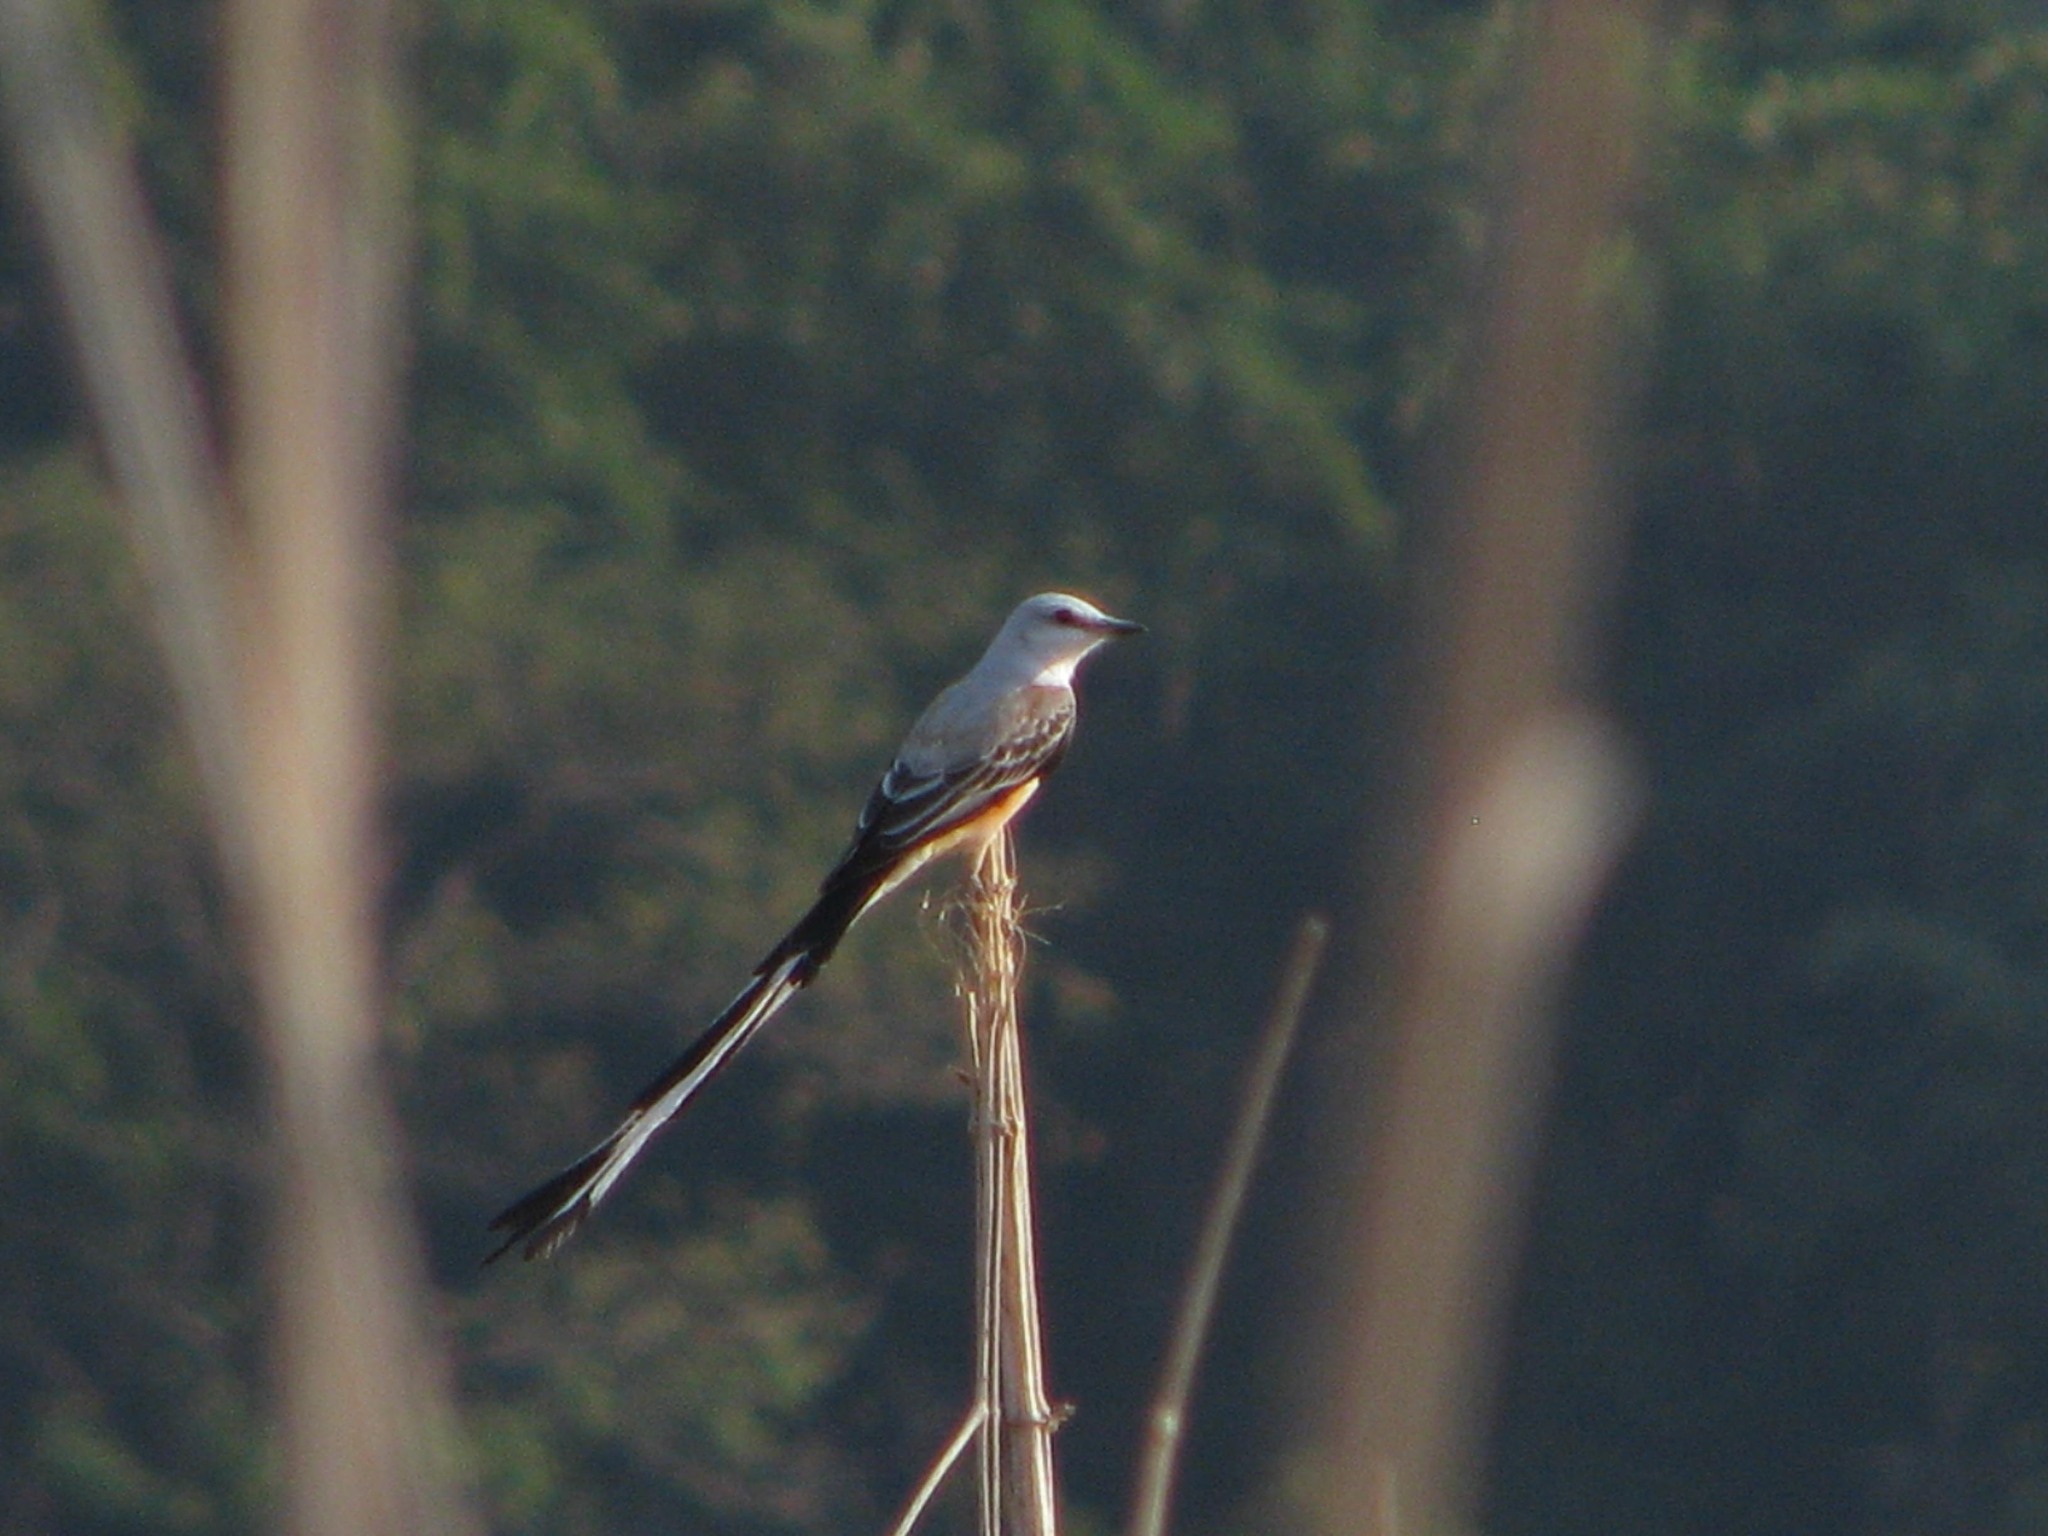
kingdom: Animalia
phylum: Chordata
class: Aves
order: Passeriformes
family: Tyrannidae
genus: Tyrannus
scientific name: Tyrannus forficatus
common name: Scissor-tailed flycatcher
